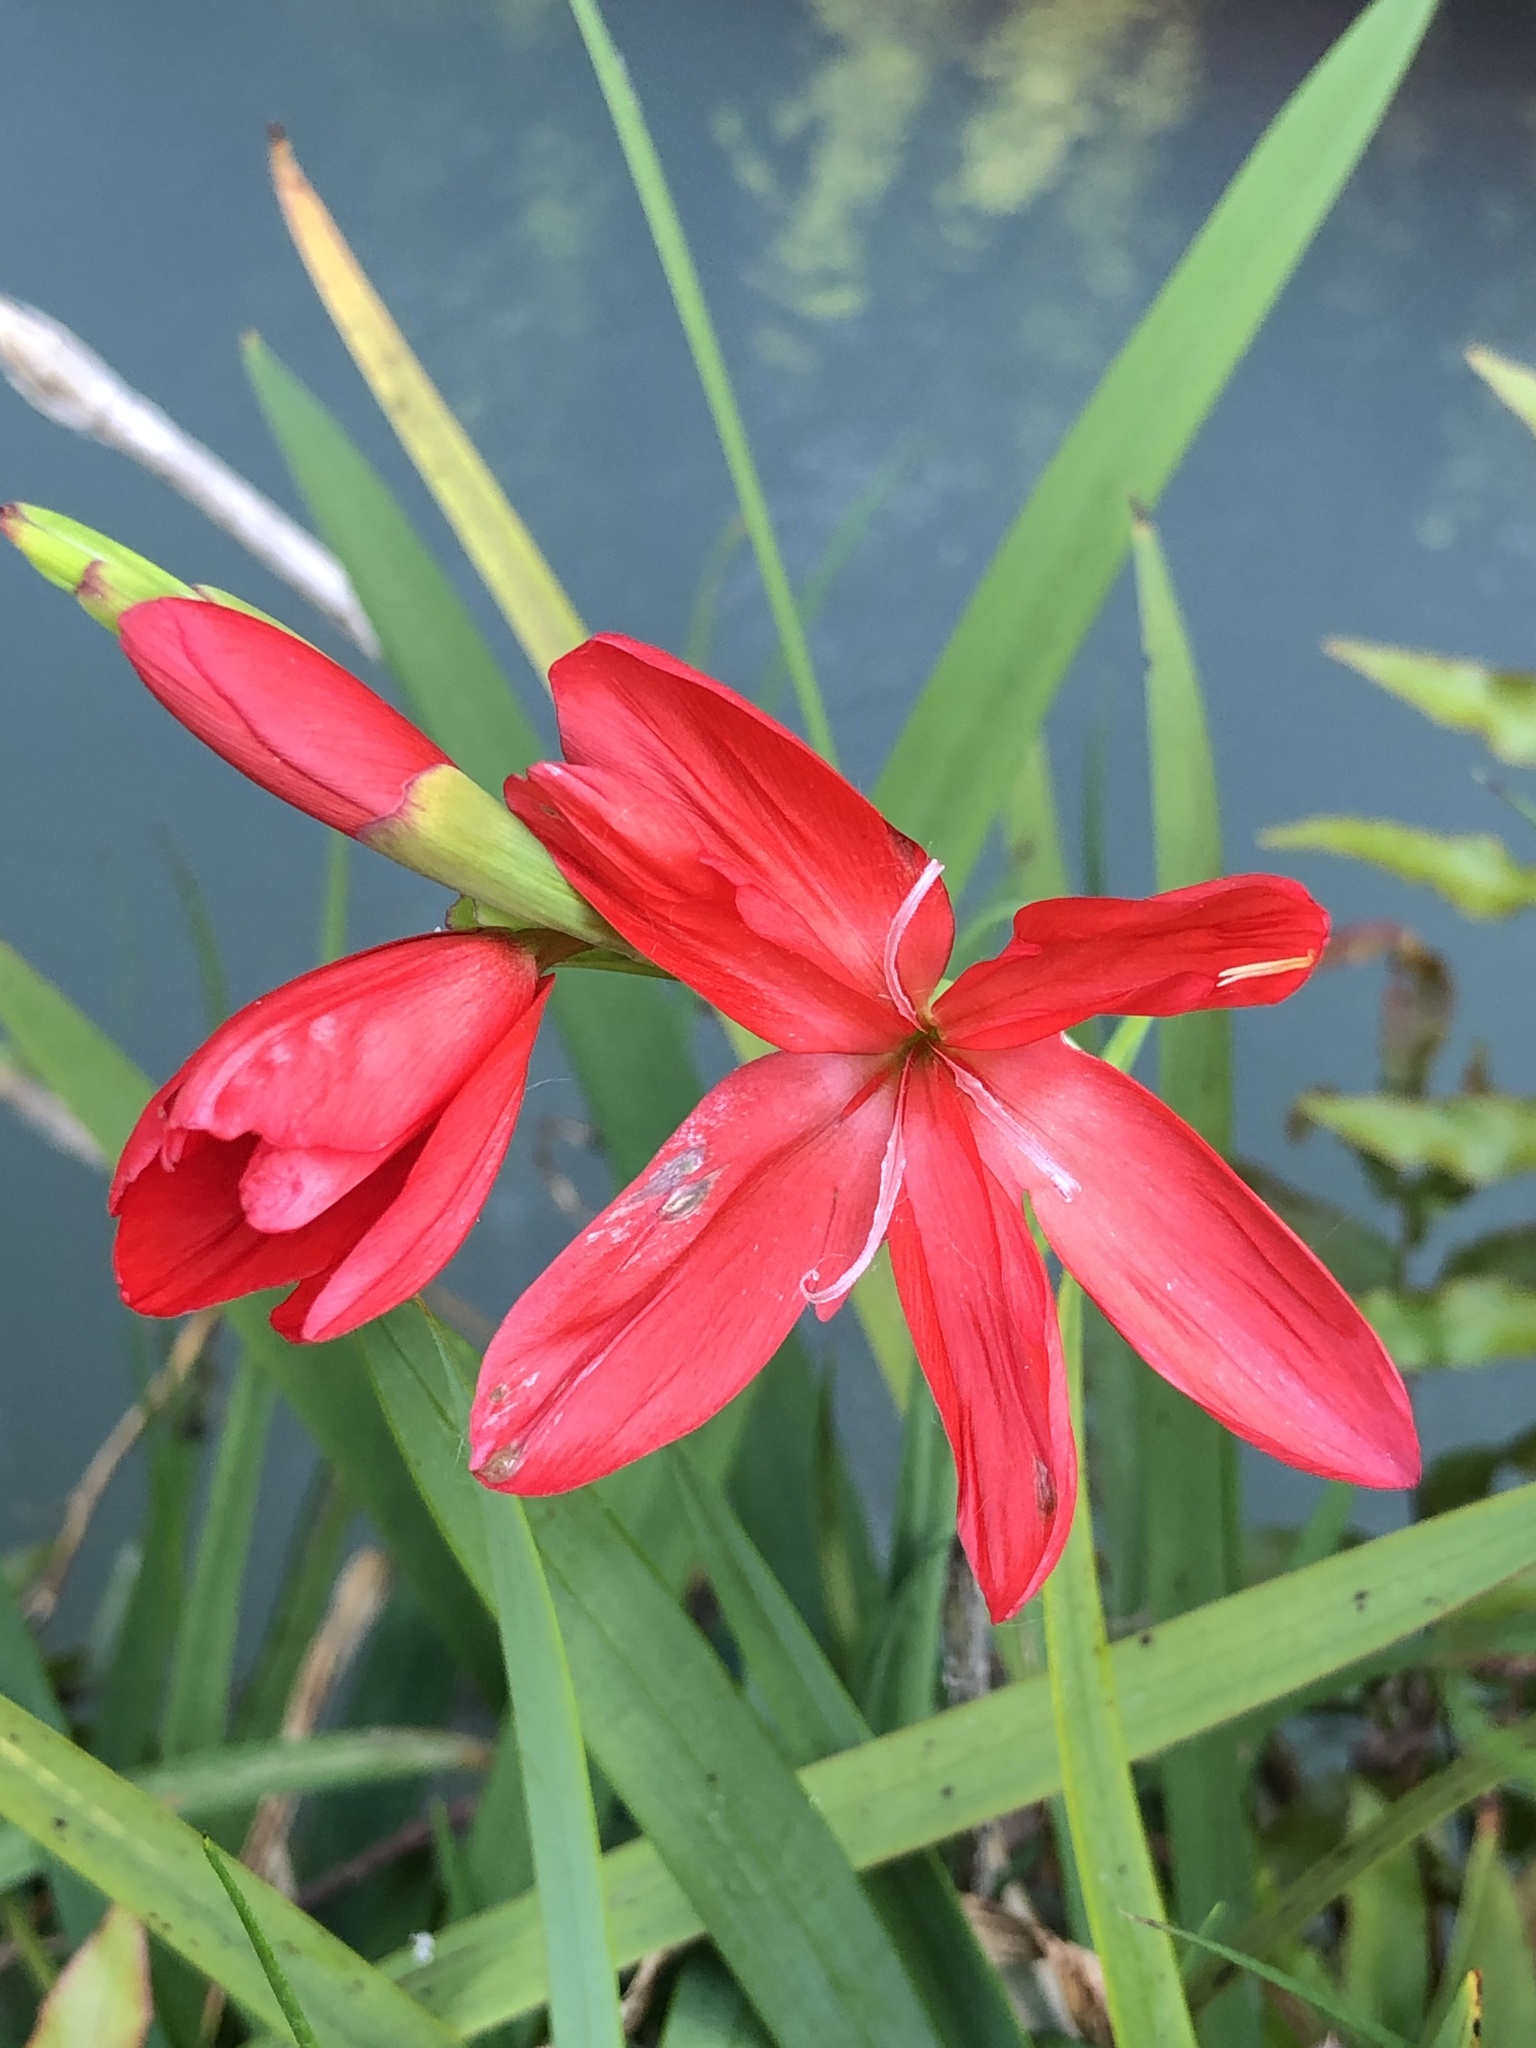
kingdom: Plantae
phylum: Tracheophyta
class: Liliopsida
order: Asparagales
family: Iridaceae
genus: Hesperantha
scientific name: Hesperantha coccinea
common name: River-lily
